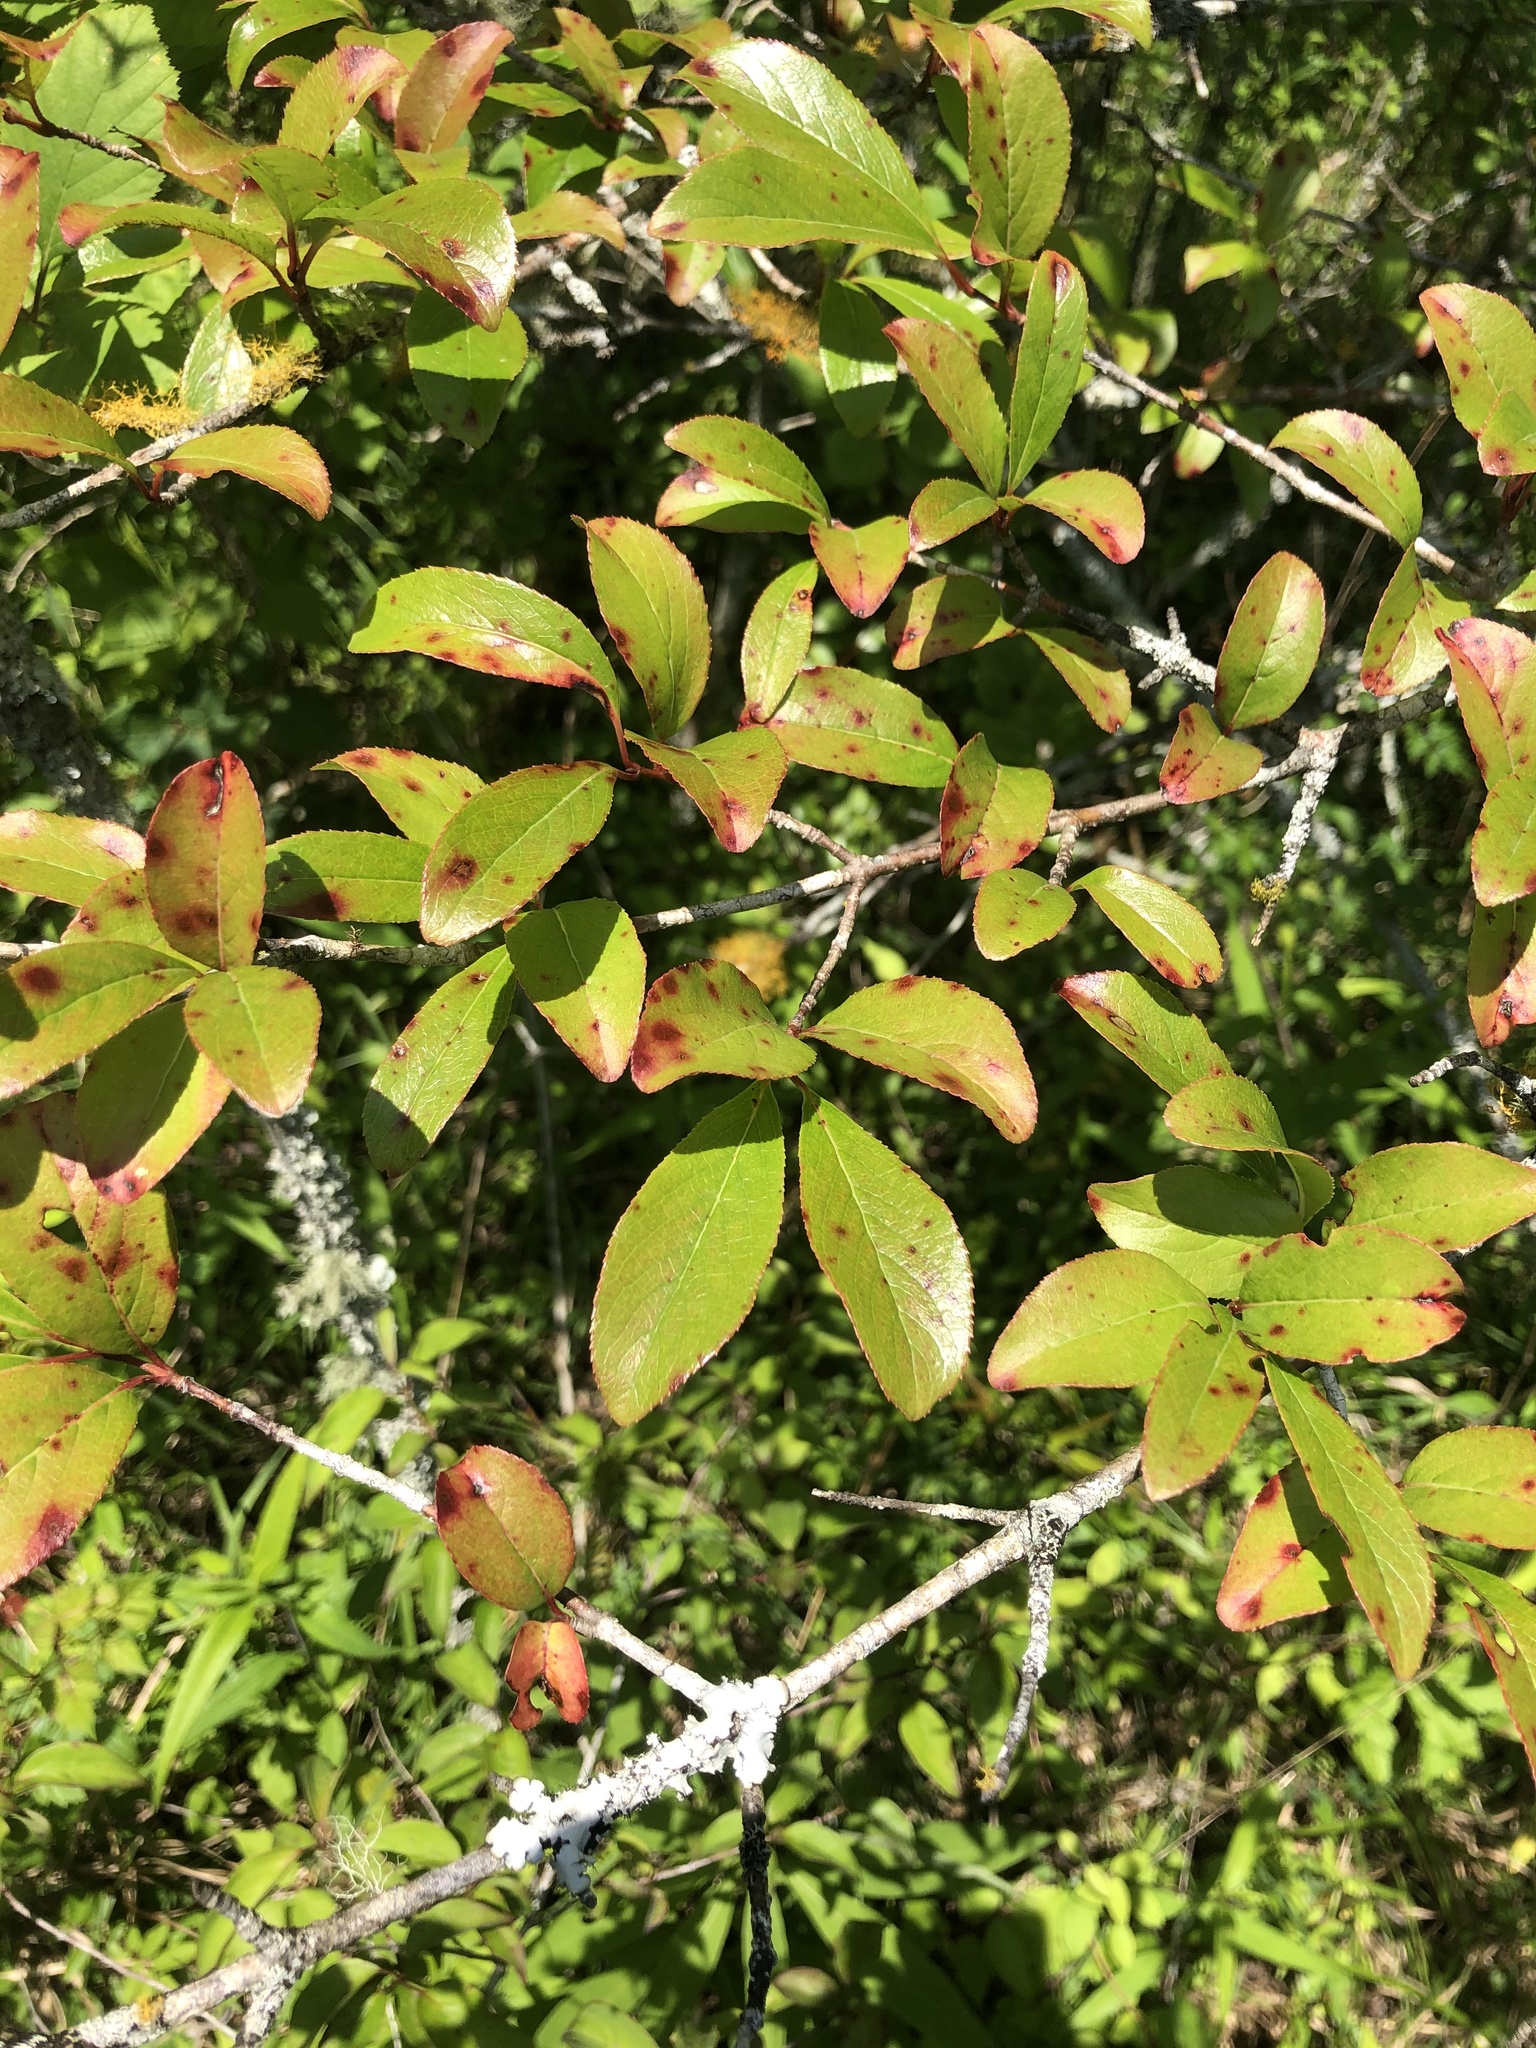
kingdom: Plantae
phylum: Tracheophyta
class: Magnoliopsida
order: Dipsacales
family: Viburnaceae
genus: Viburnum
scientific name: Viburnum rufidulum
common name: Blue haw
